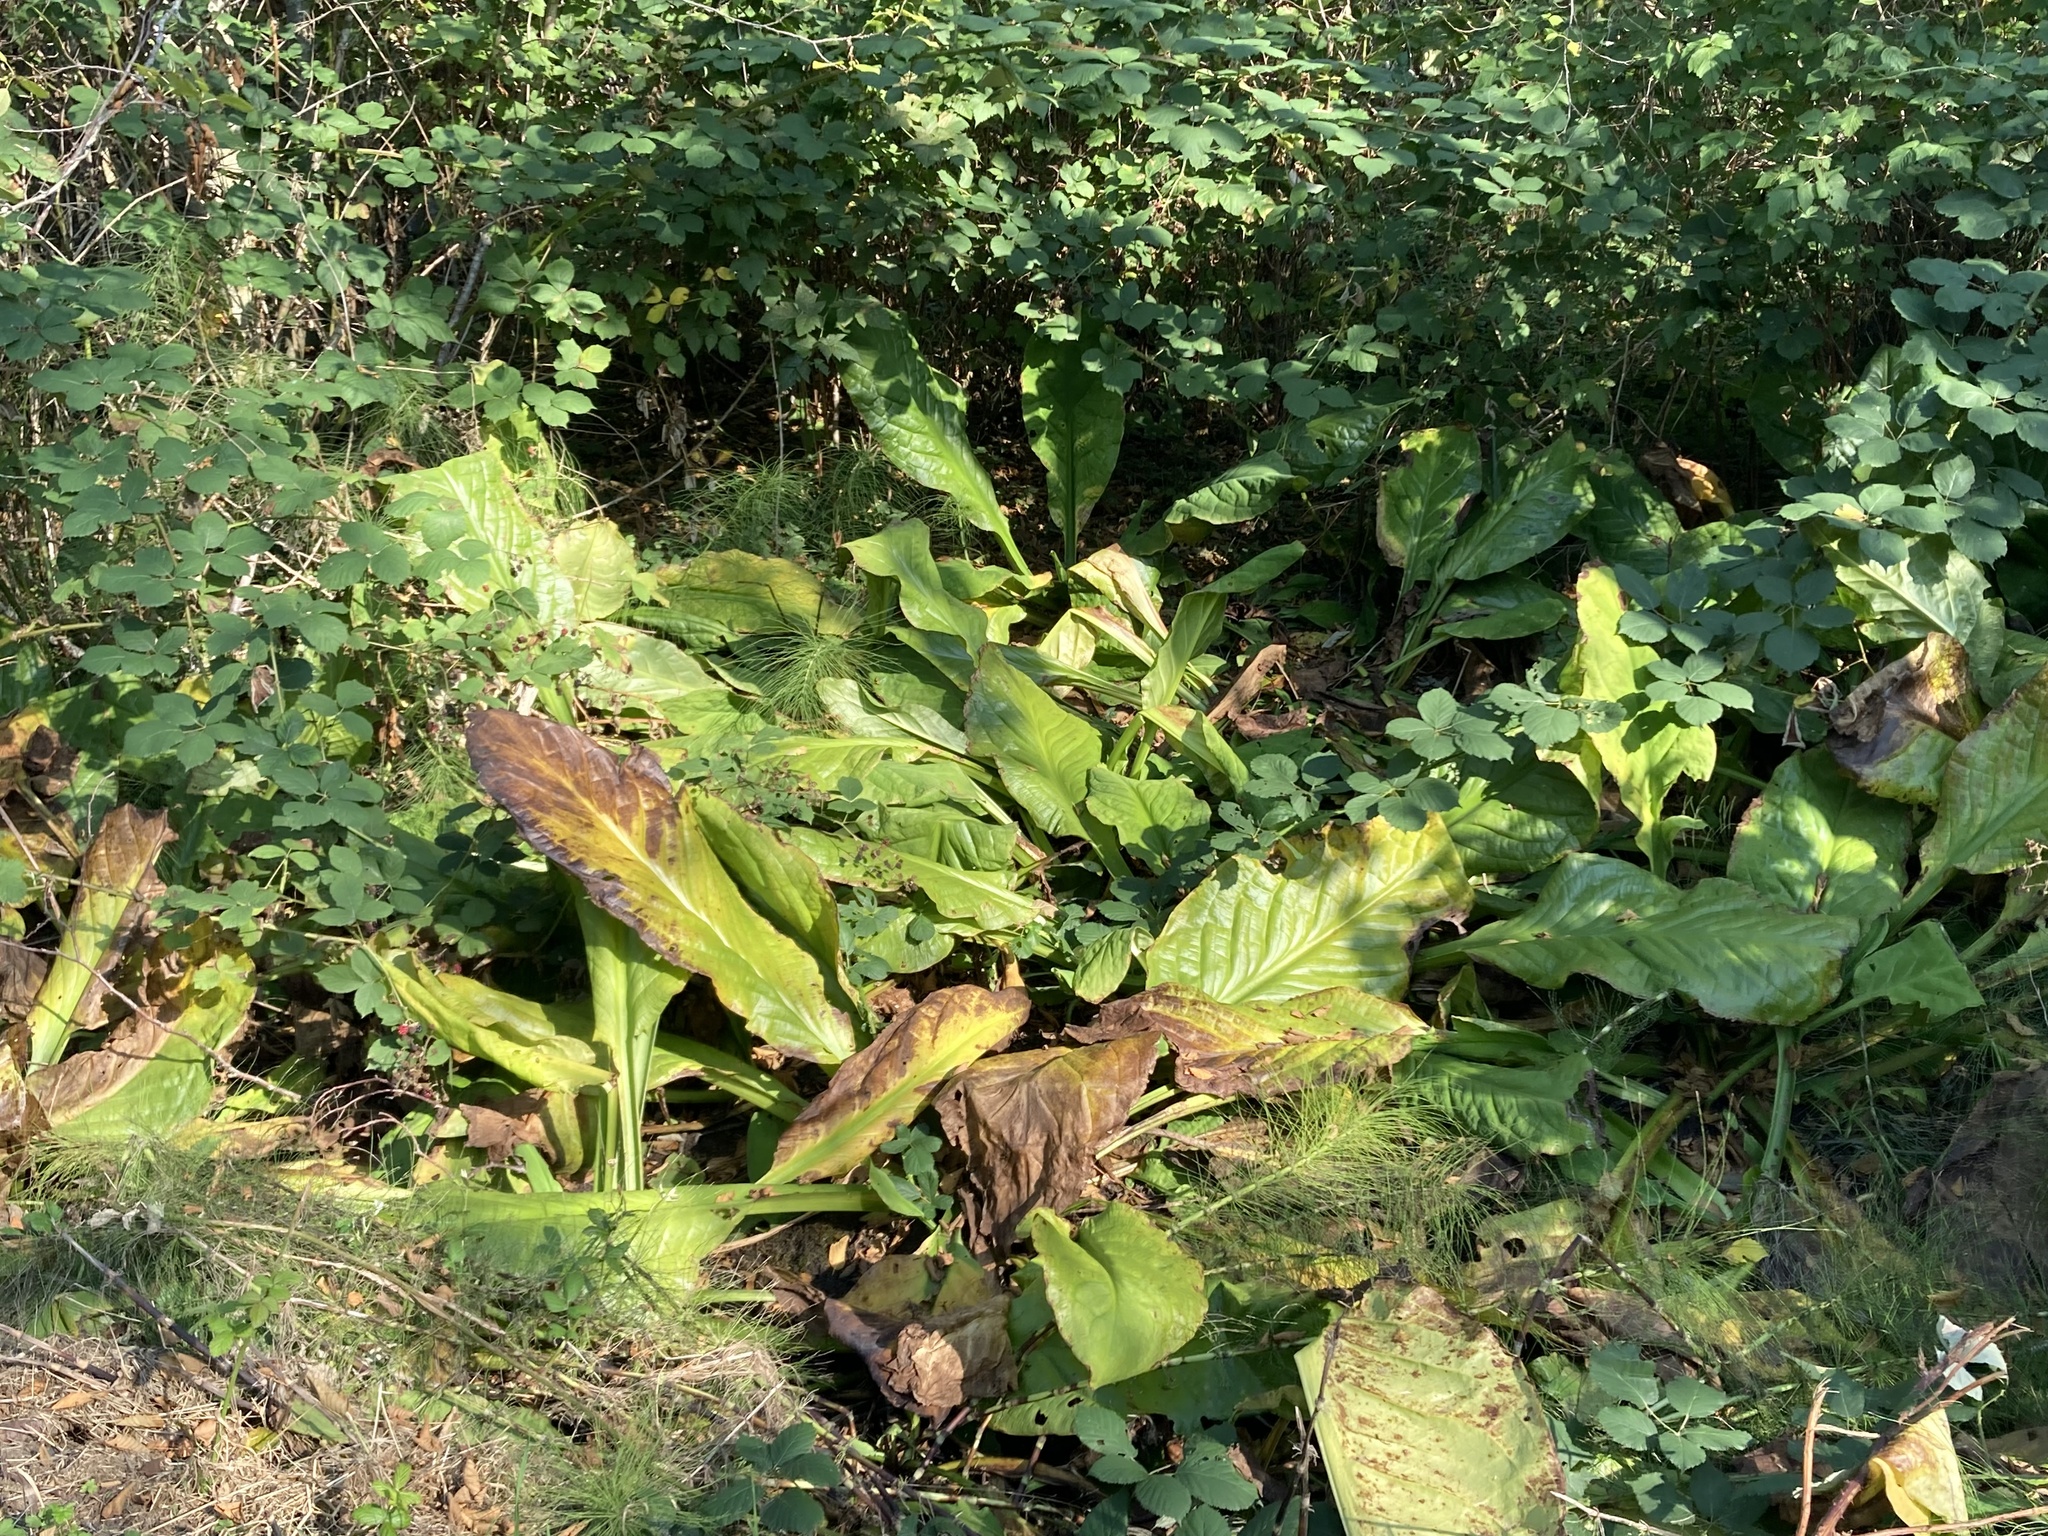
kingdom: Plantae
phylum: Tracheophyta
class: Liliopsida
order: Alismatales
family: Araceae
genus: Lysichiton
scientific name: Lysichiton americanus
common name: American skunk cabbage
